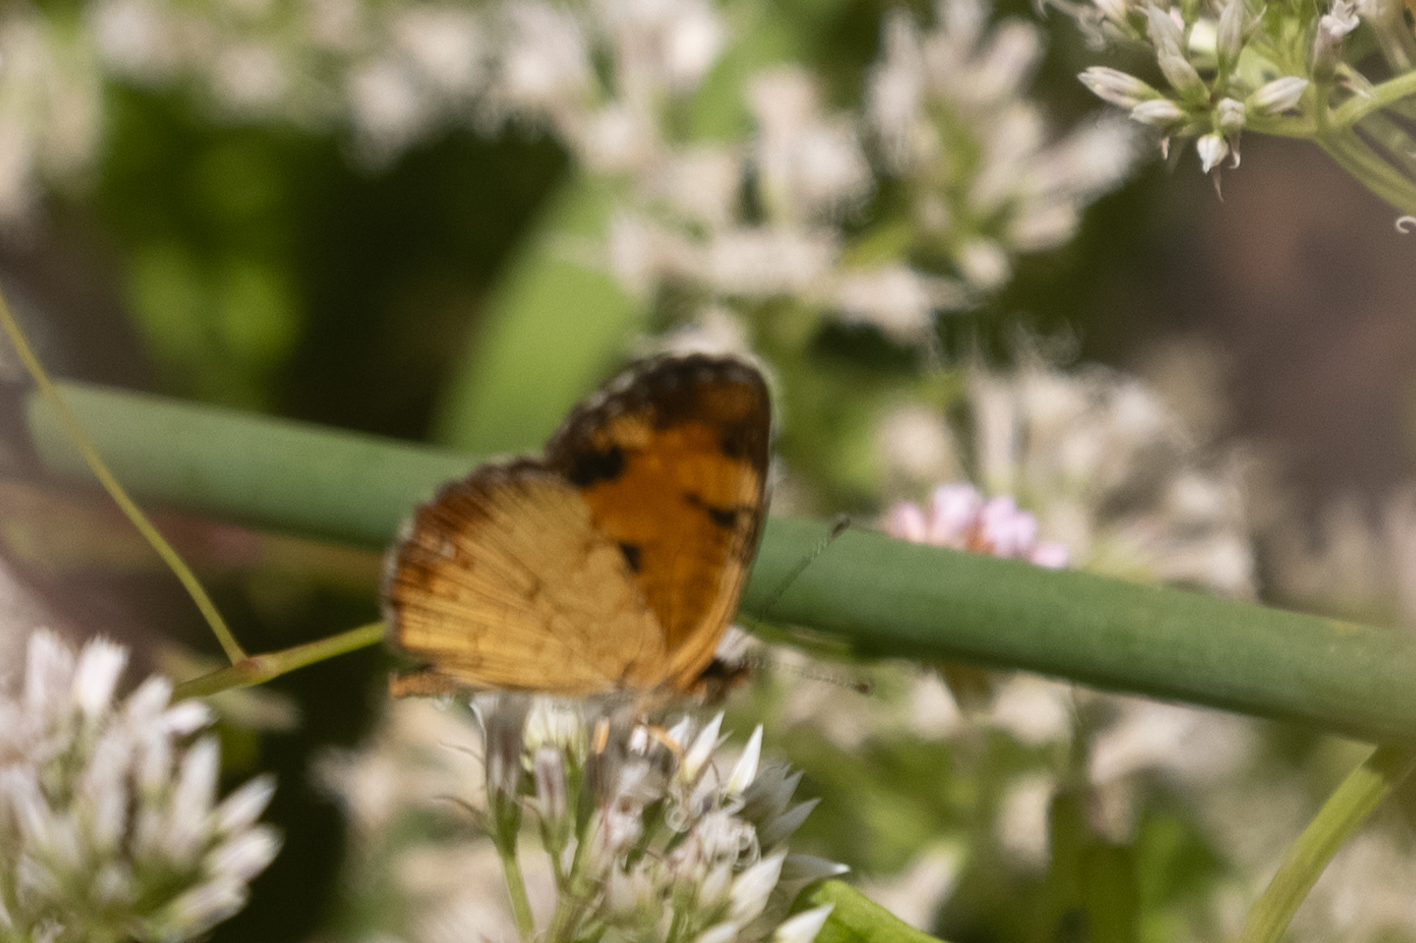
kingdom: Animalia
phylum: Arthropoda
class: Insecta
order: Lepidoptera
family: Nymphalidae
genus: Phyciodes
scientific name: Phyciodes tharos
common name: Pearl crescent
